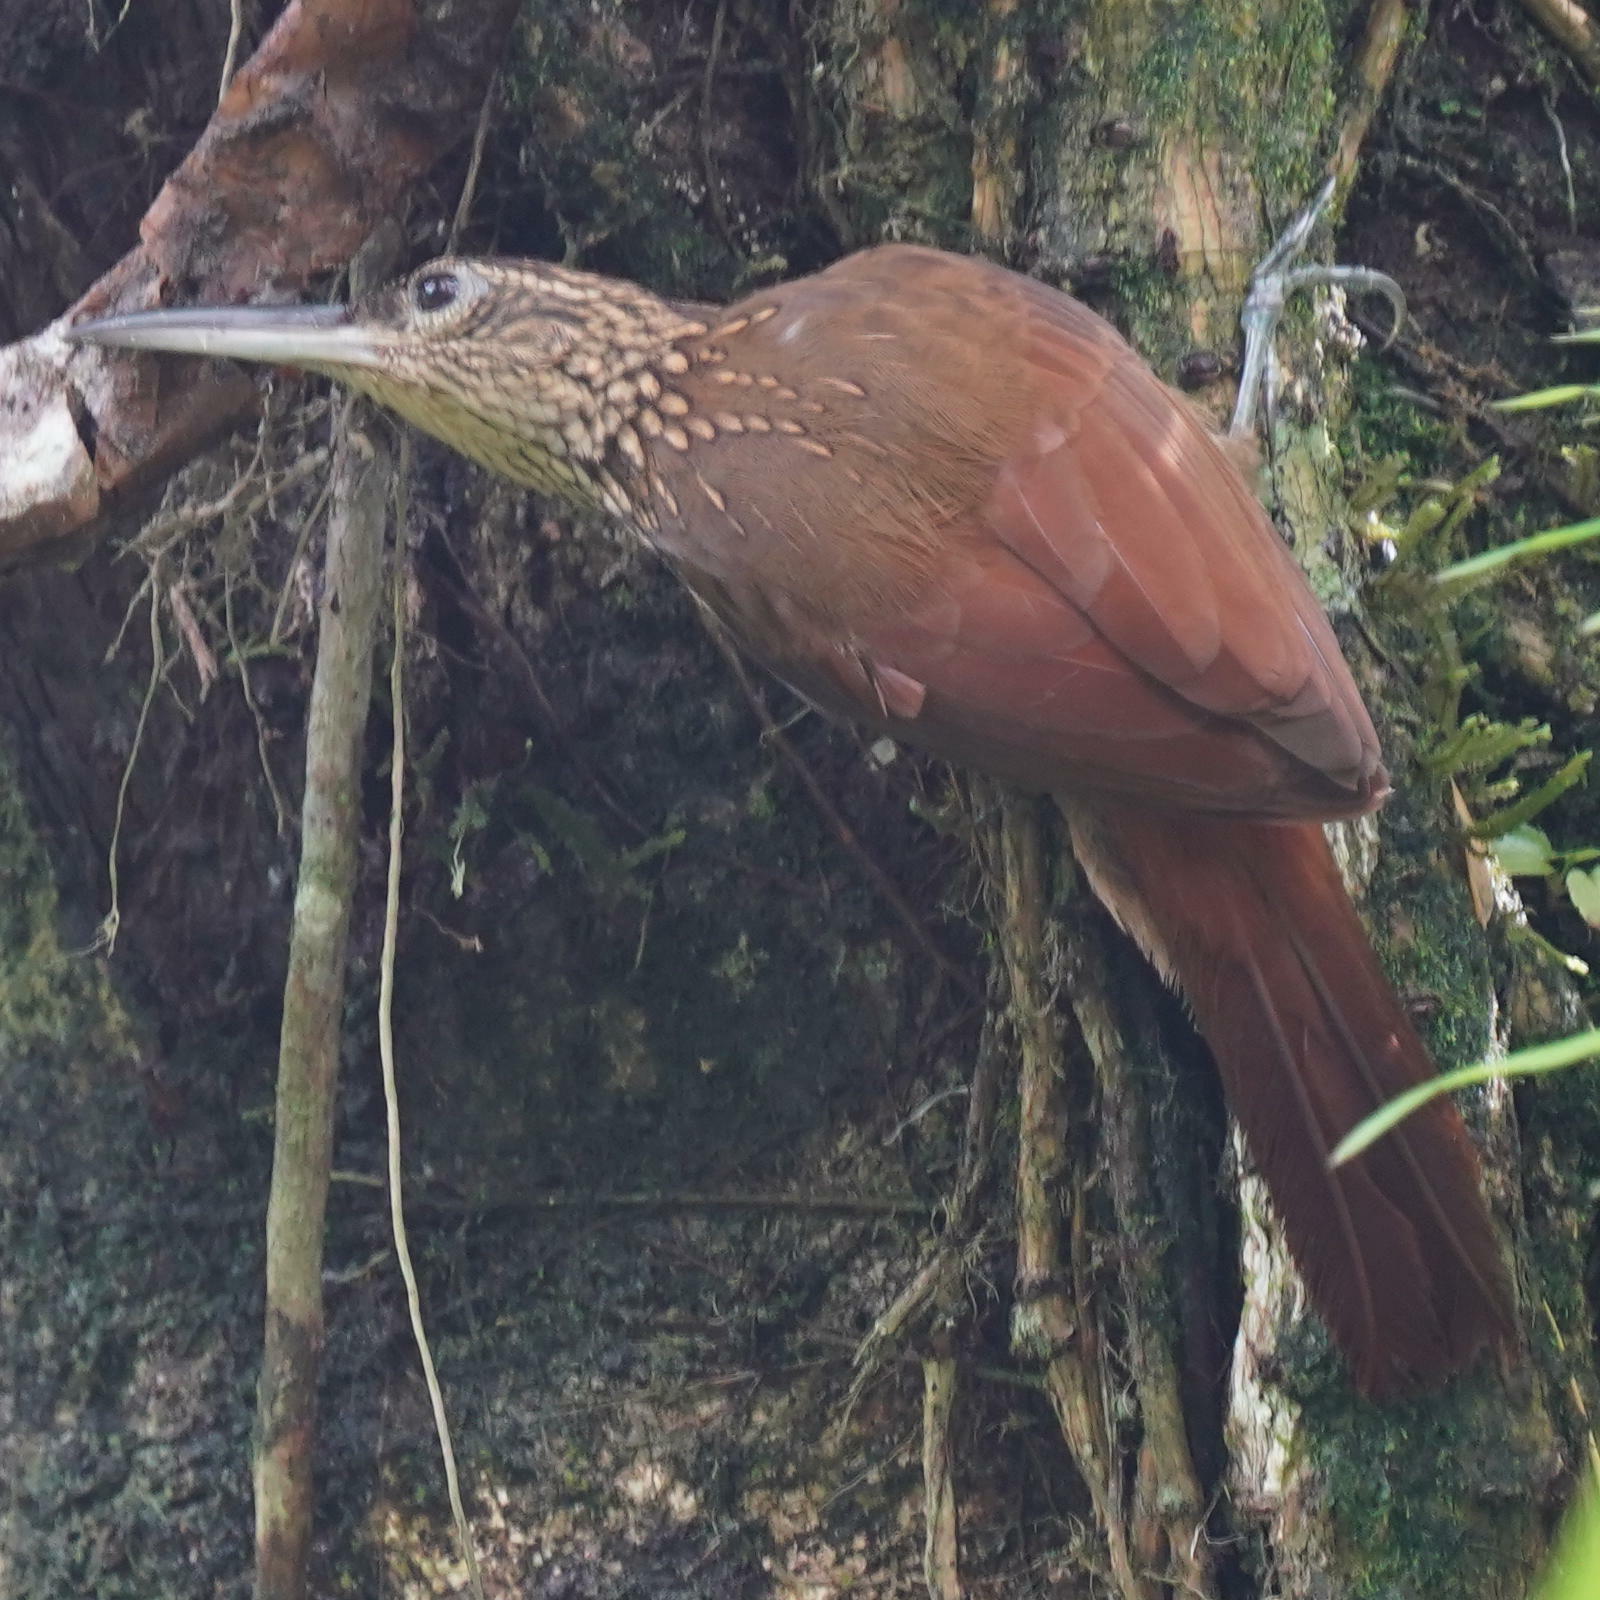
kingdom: Animalia
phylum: Chordata
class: Aves
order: Passeriformes
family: Furnariidae
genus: Xiphorhynchus
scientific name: Xiphorhynchus susurrans
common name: Cocoa woodcreeper
